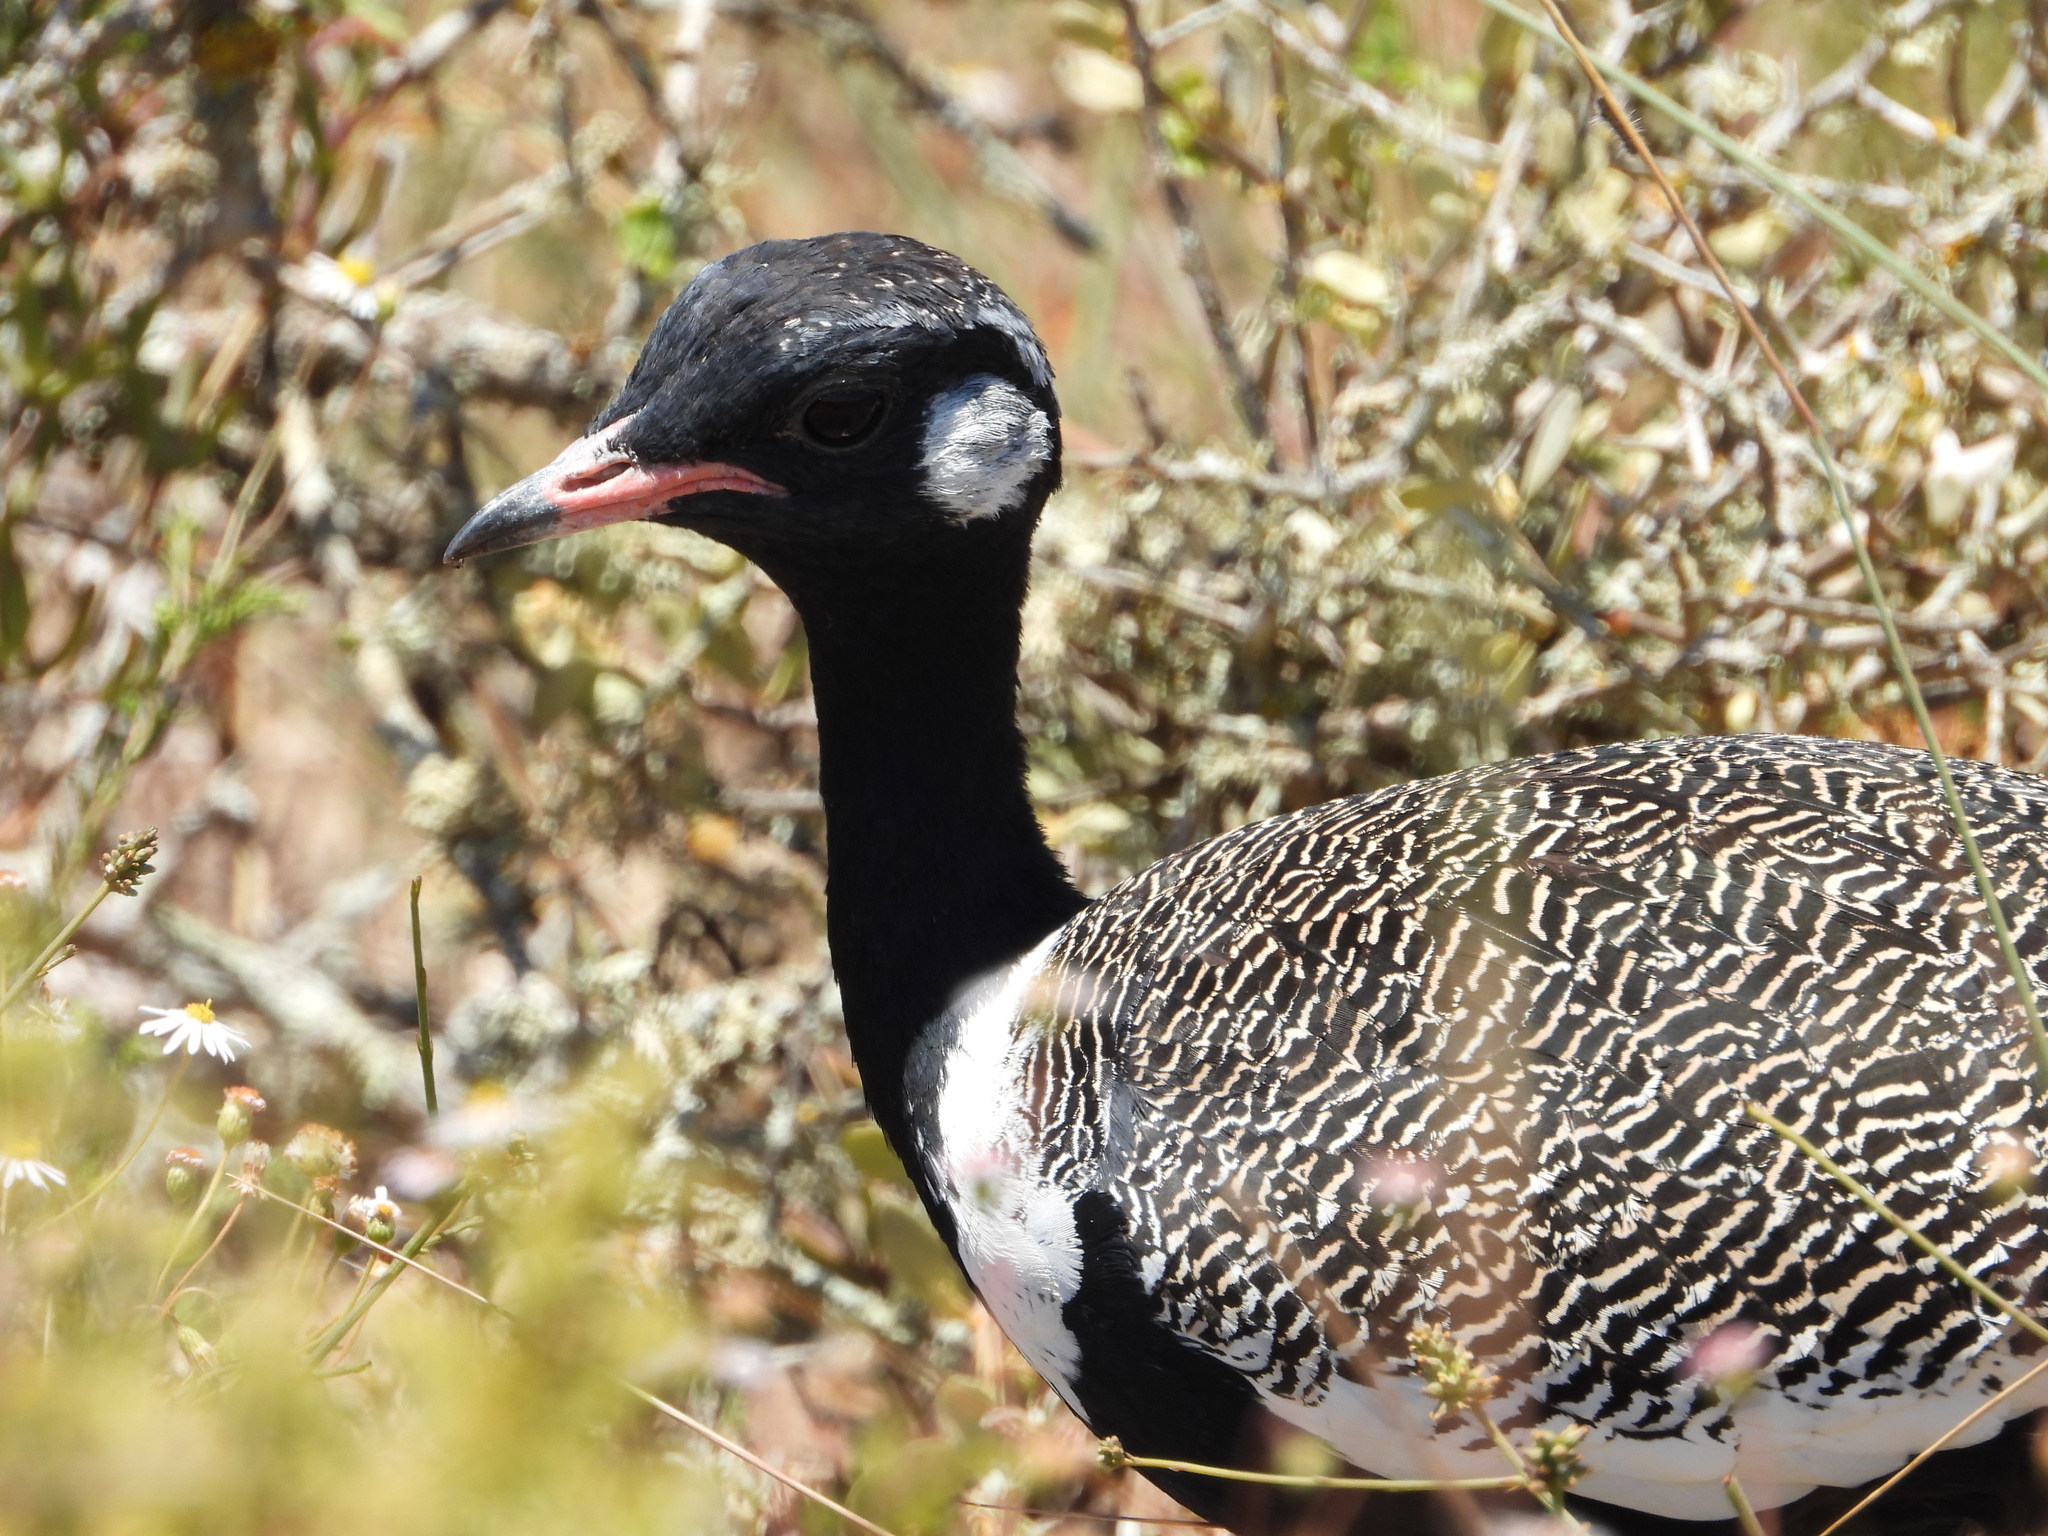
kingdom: Animalia
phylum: Chordata
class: Aves
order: Otidiformes
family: Otididae
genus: Afrotis
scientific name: Afrotis afra
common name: Southern black korhaan
